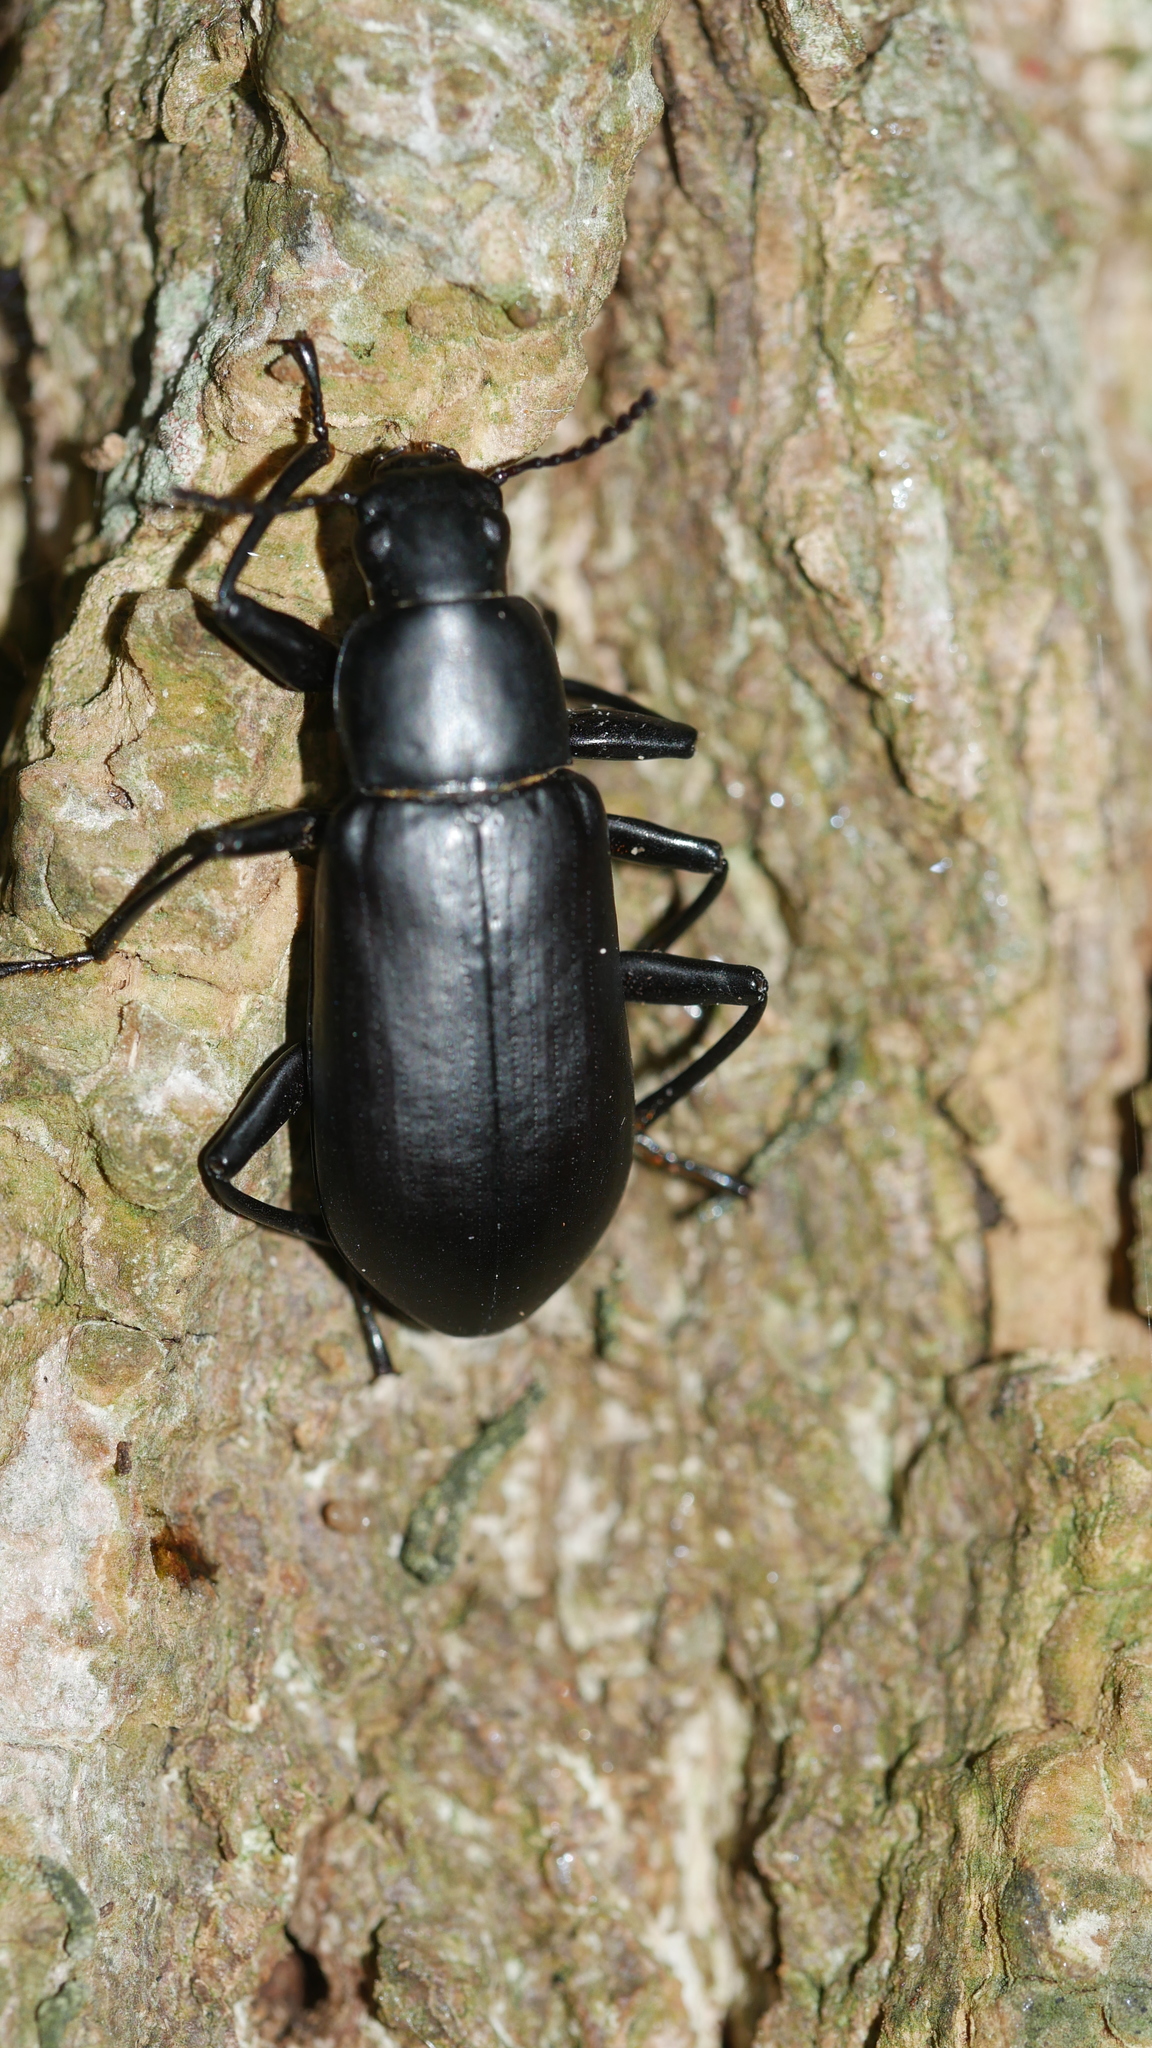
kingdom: Animalia
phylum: Arthropoda
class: Insecta
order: Coleoptera
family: Tenebrionidae
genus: Alobates
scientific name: Alobates
